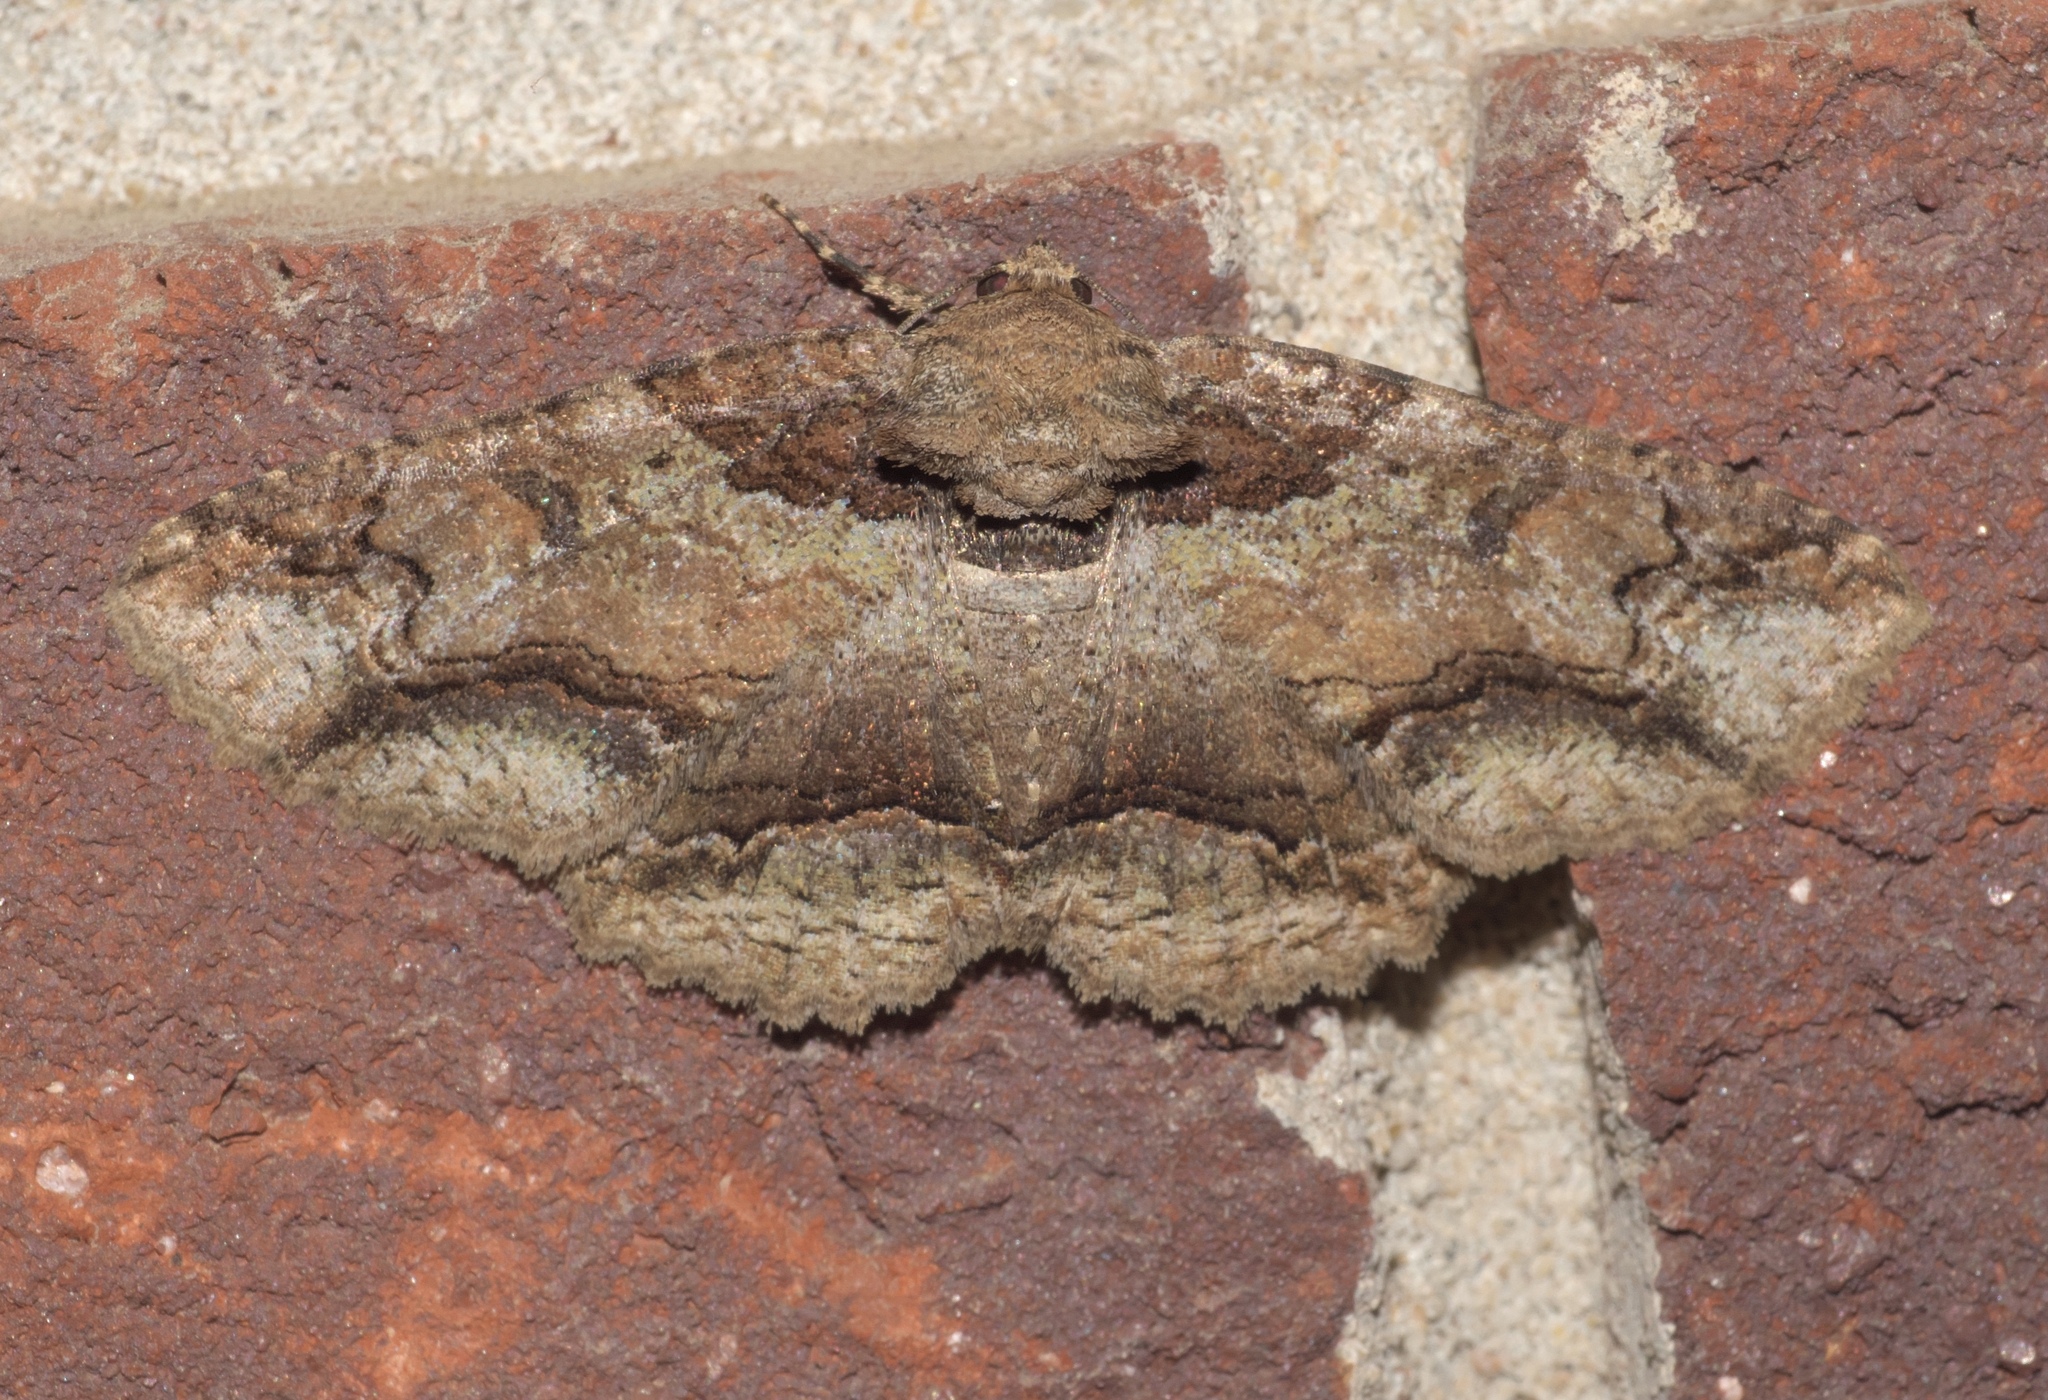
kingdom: Animalia
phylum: Arthropoda
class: Insecta
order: Lepidoptera
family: Erebidae
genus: Zale
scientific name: Zale galbanata
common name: Maple zale
